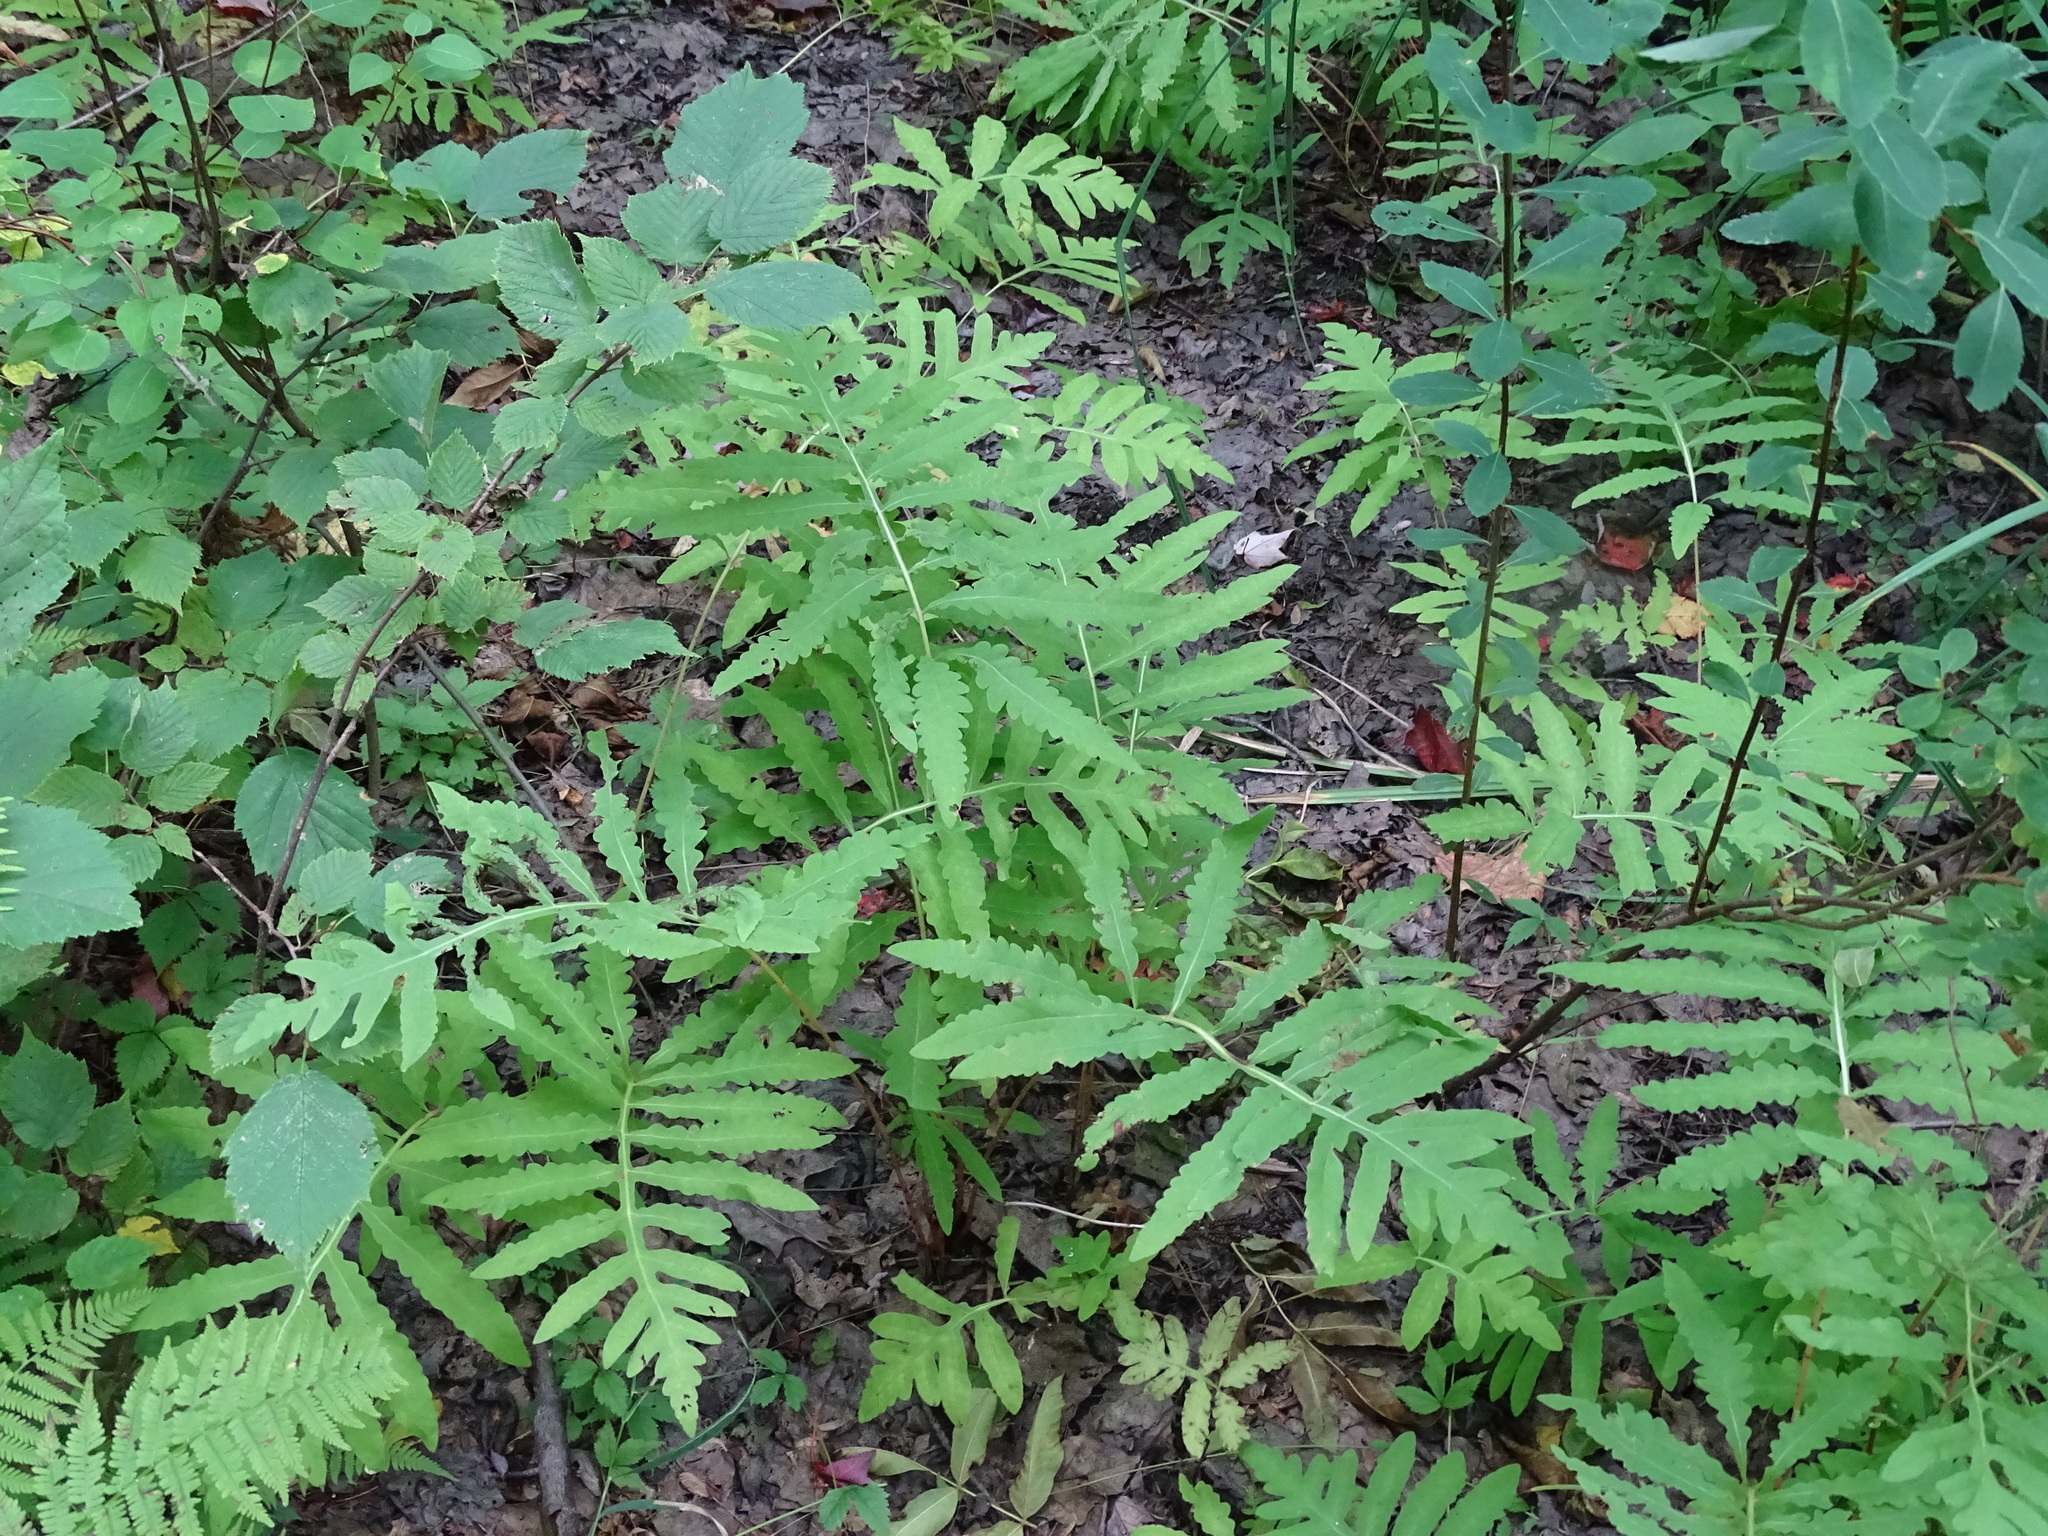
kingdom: Plantae
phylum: Tracheophyta
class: Polypodiopsida
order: Polypodiales
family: Onocleaceae
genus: Onoclea
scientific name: Onoclea sensibilis
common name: Sensitive fern
